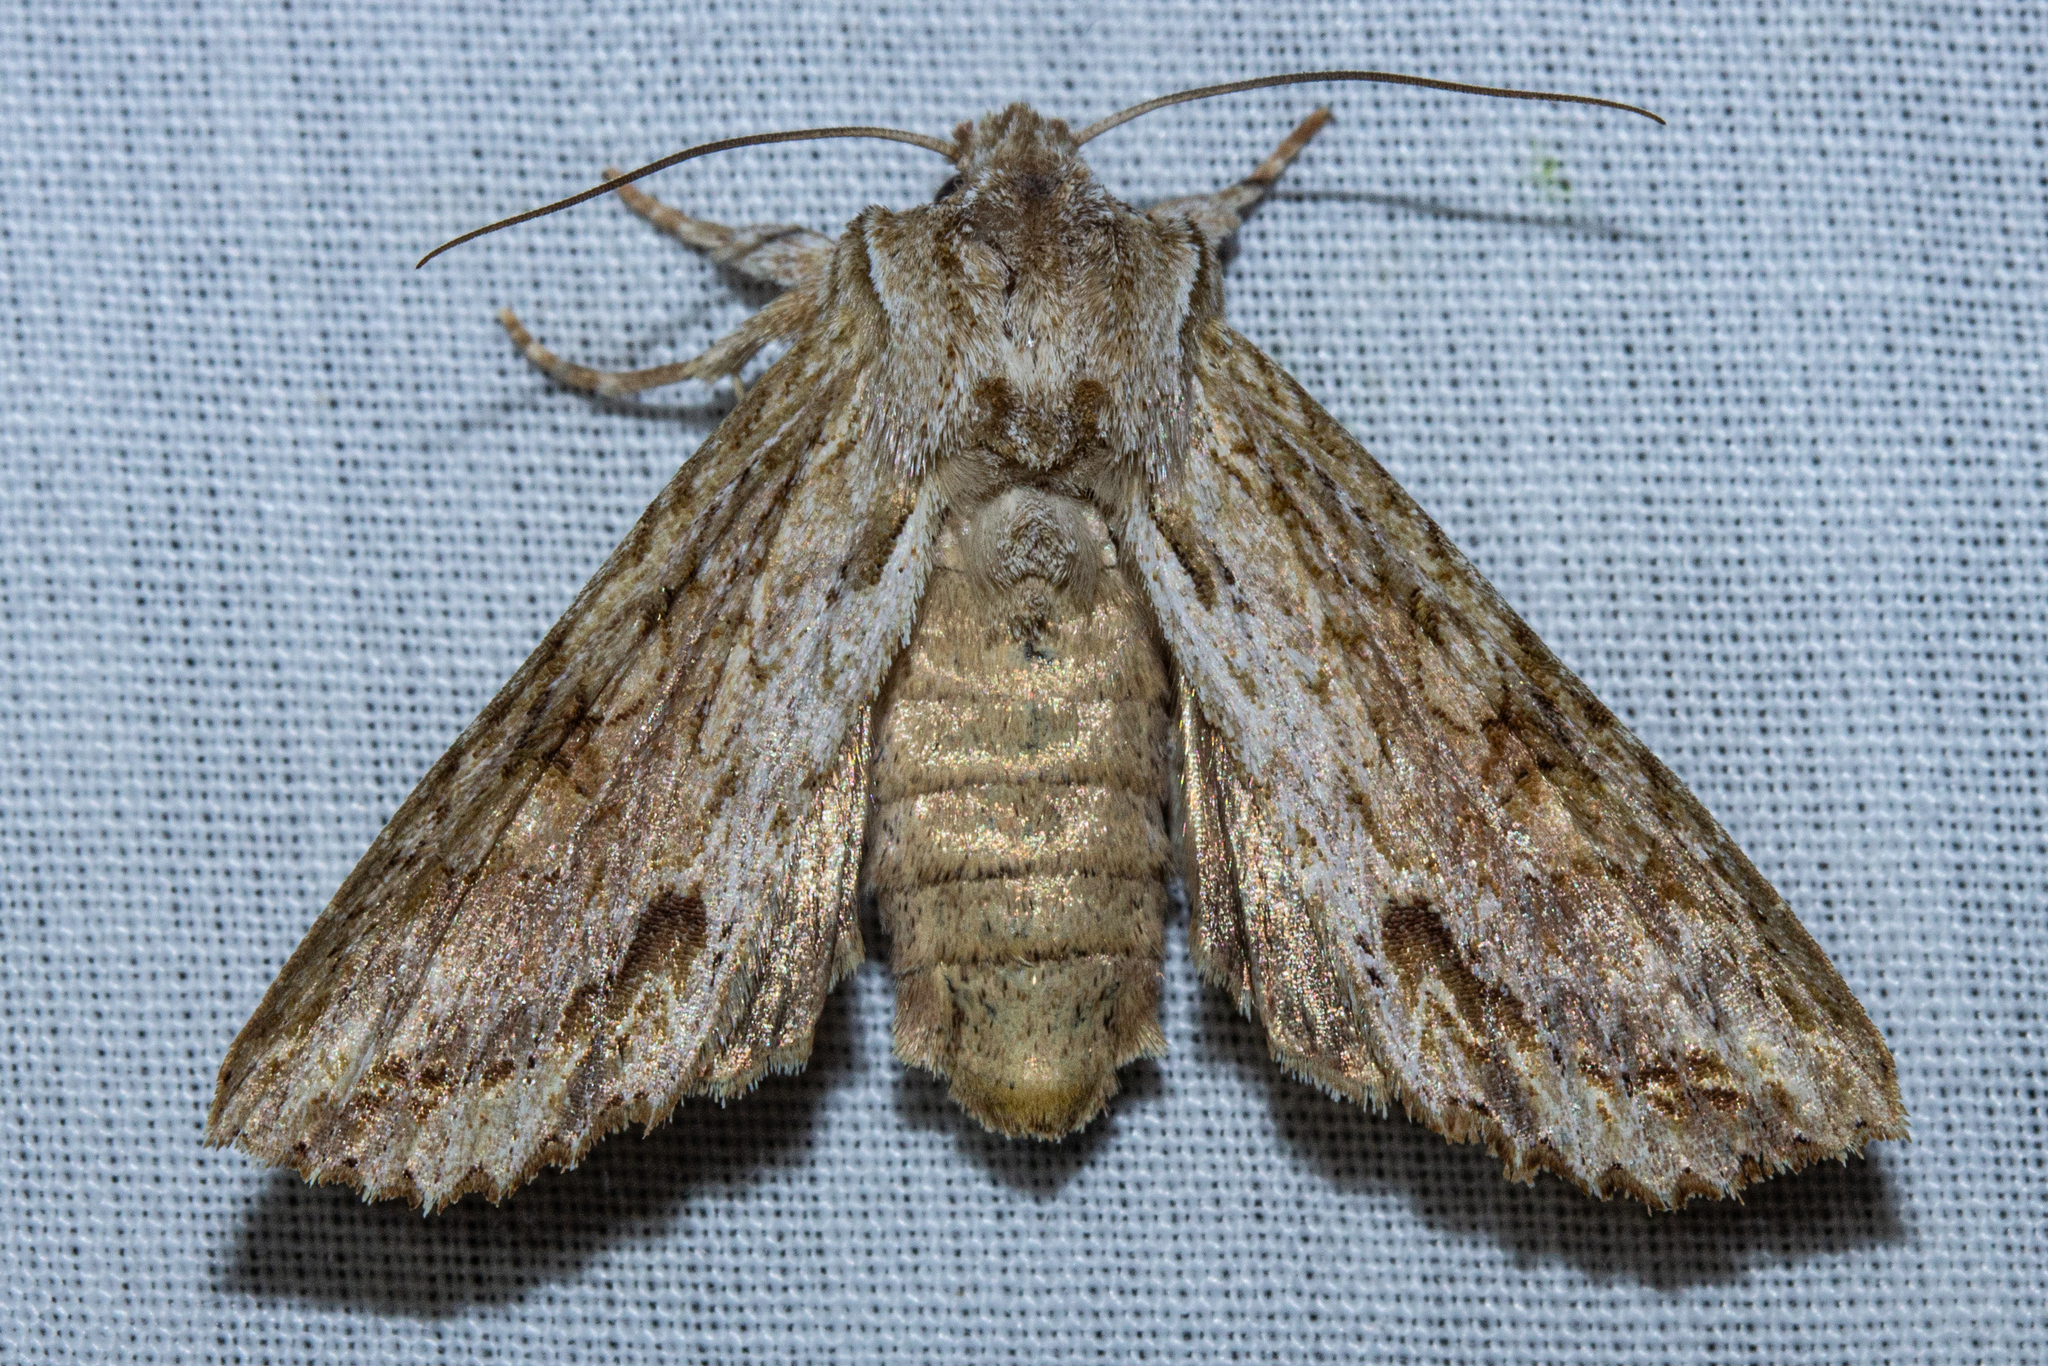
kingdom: Animalia
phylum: Arthropoda
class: Insecta
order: Lepidoptera
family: Noctuidae
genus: Ichneutica
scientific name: Ichneutica mollis
